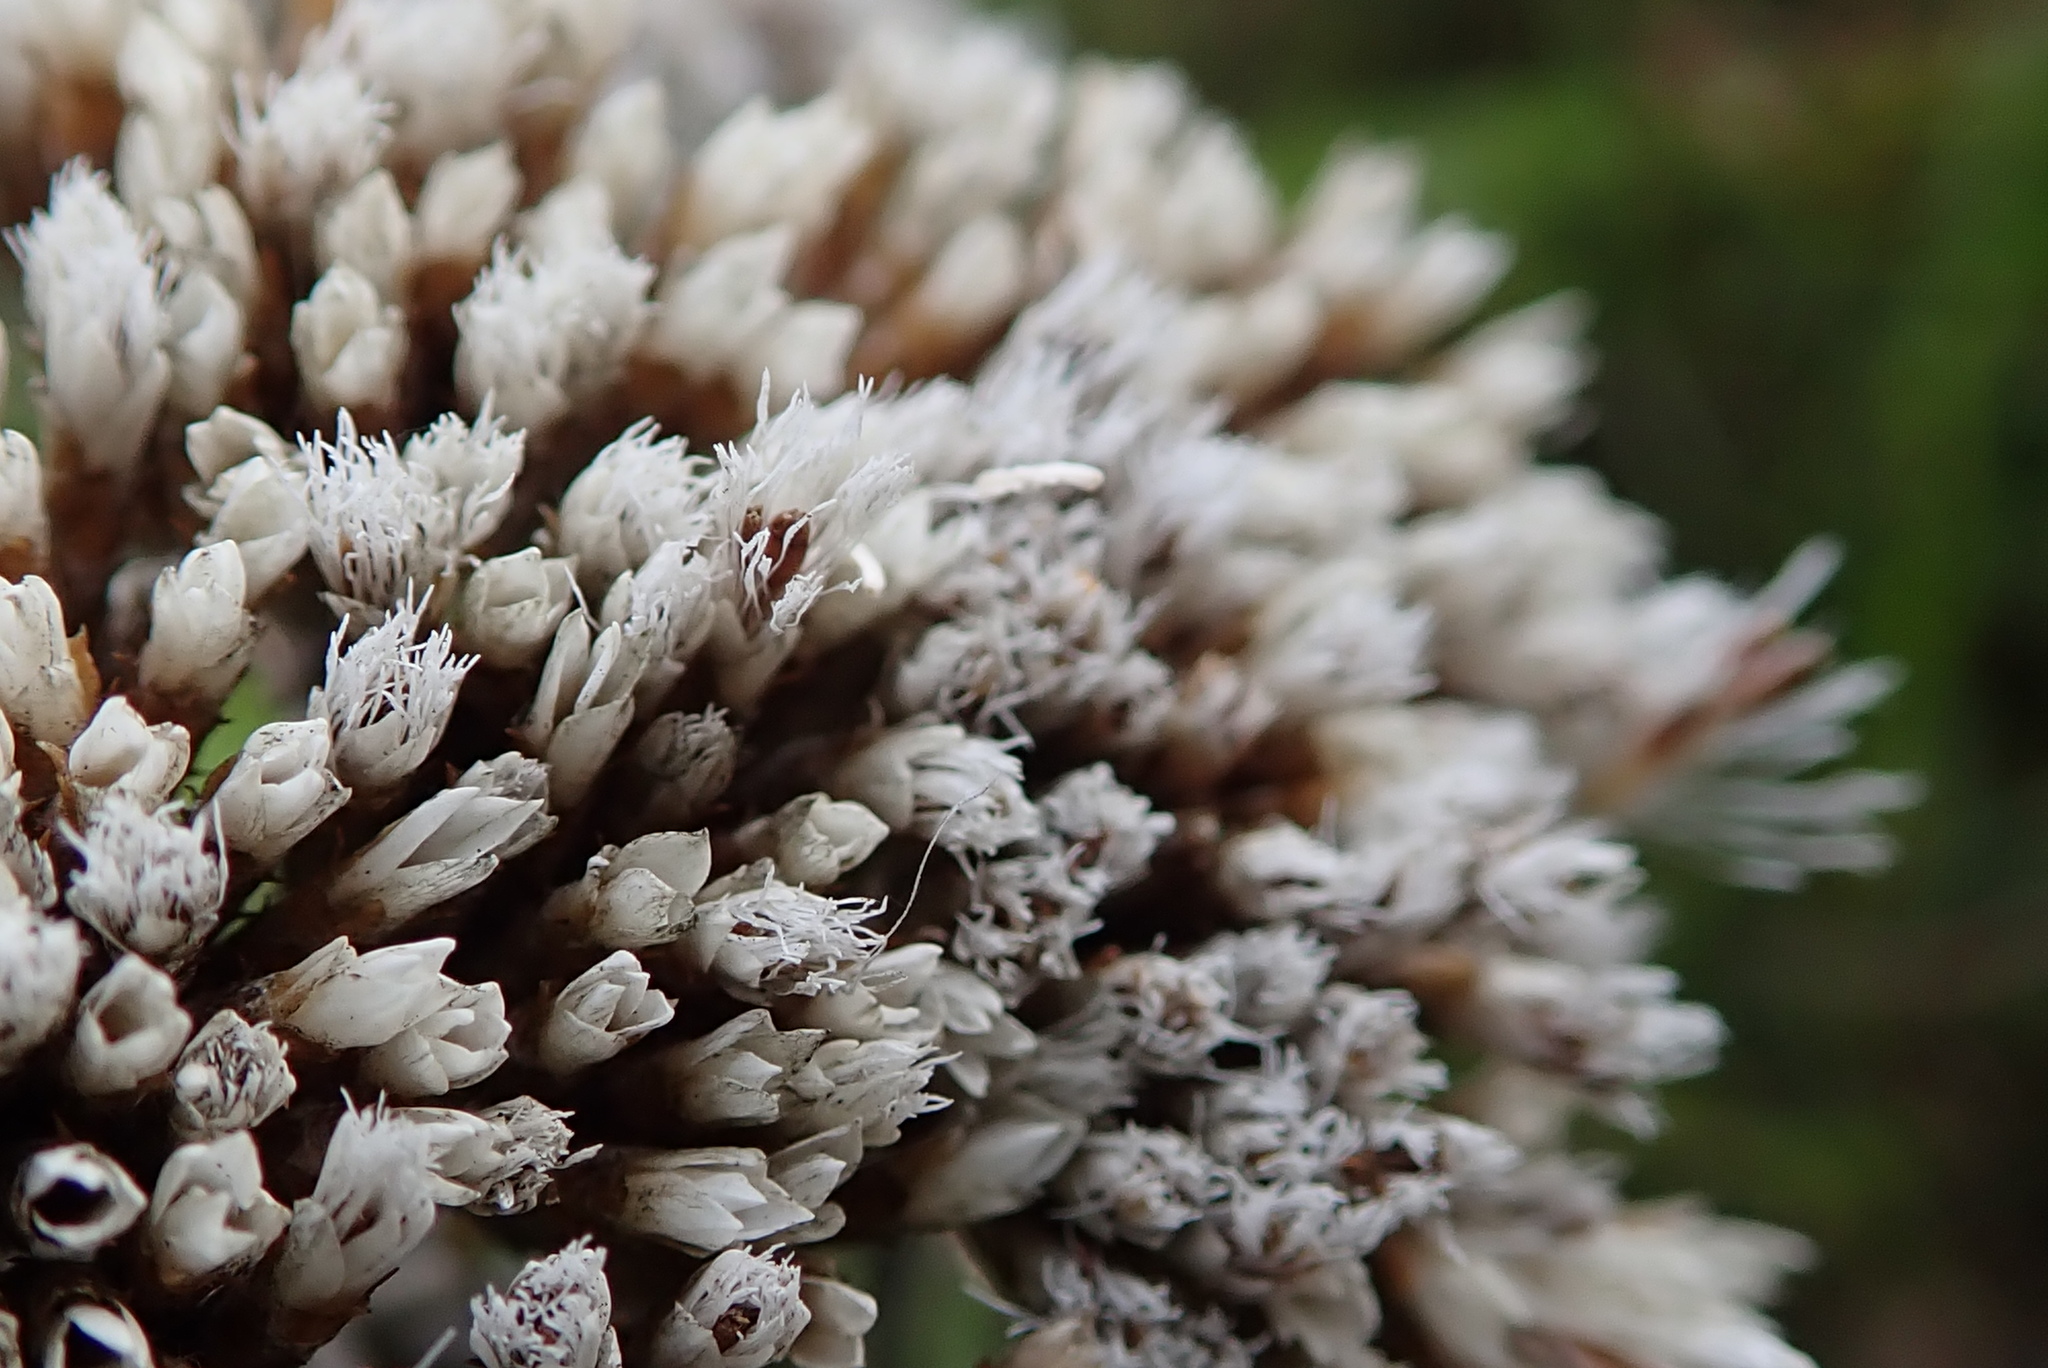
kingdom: Plantae
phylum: Tracheophyta
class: Magnoliopsida
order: Asterales
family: Asteraceae
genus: Metalasia
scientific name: Metalasia densa
